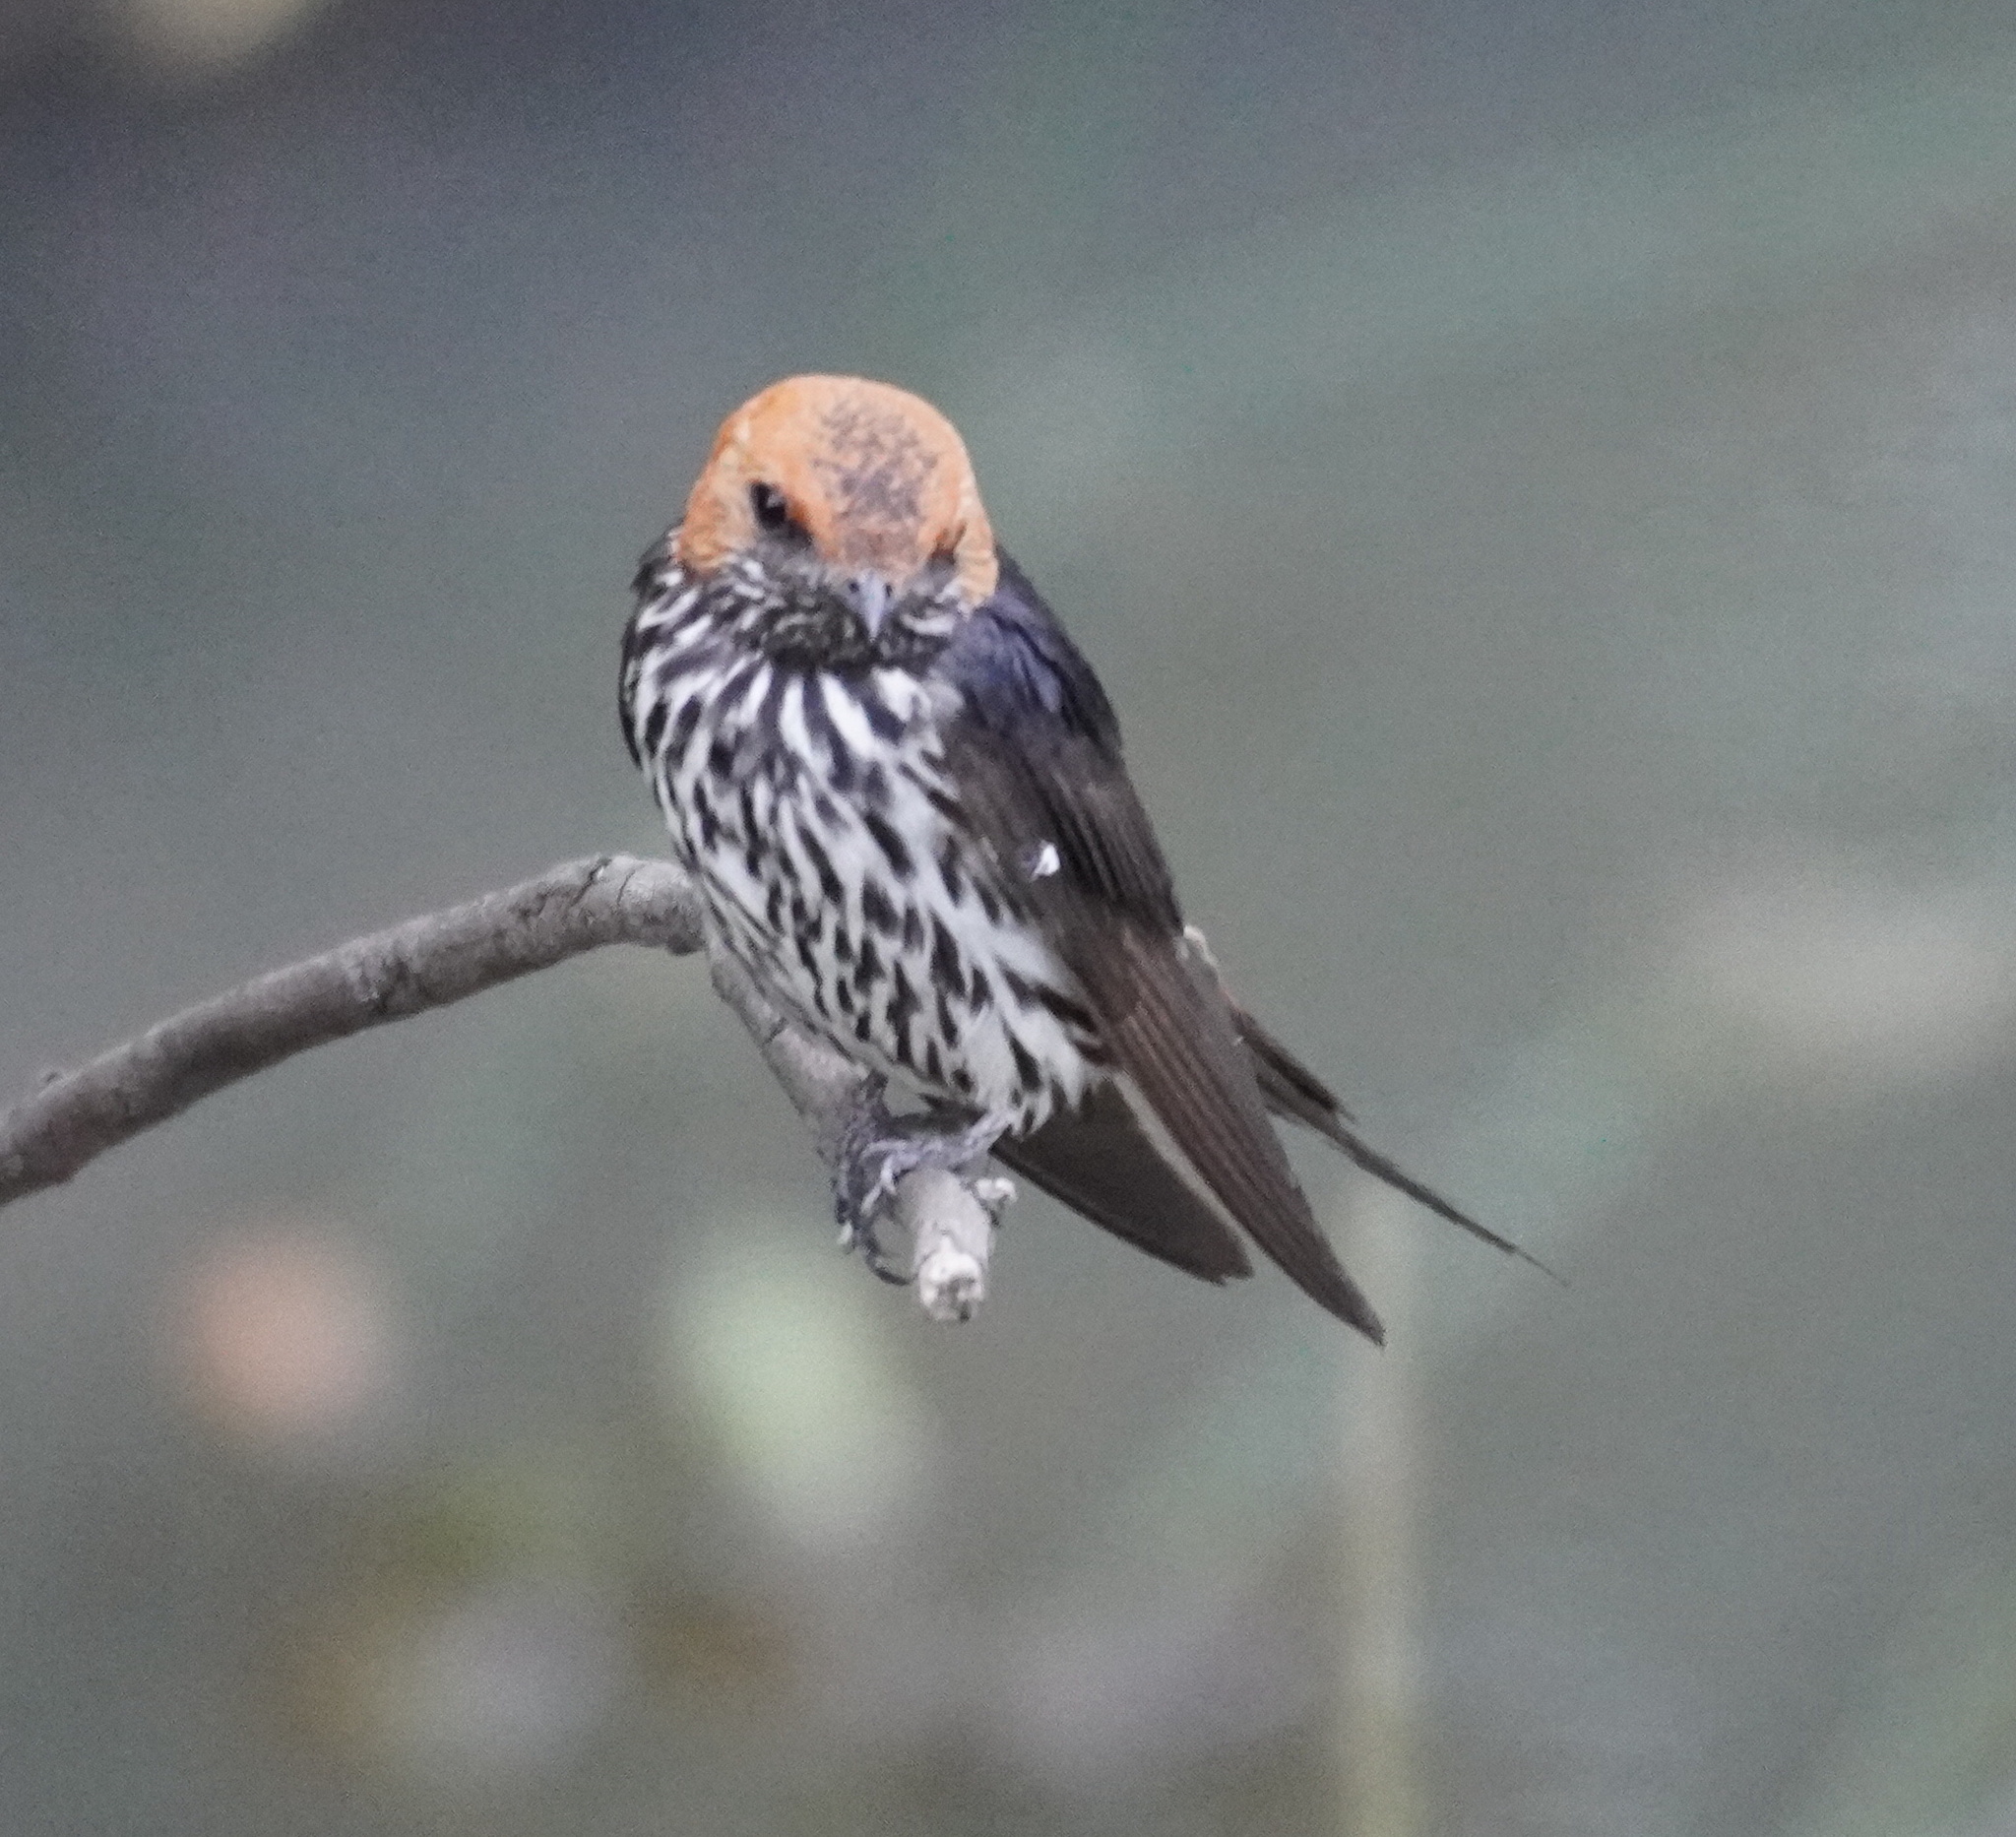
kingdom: Animalia
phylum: Chordata
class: Aves
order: Passeriformes
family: Hirundinidae
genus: Cecropis
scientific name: Cecropis abyssinica
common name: Lesser striped-swallow
